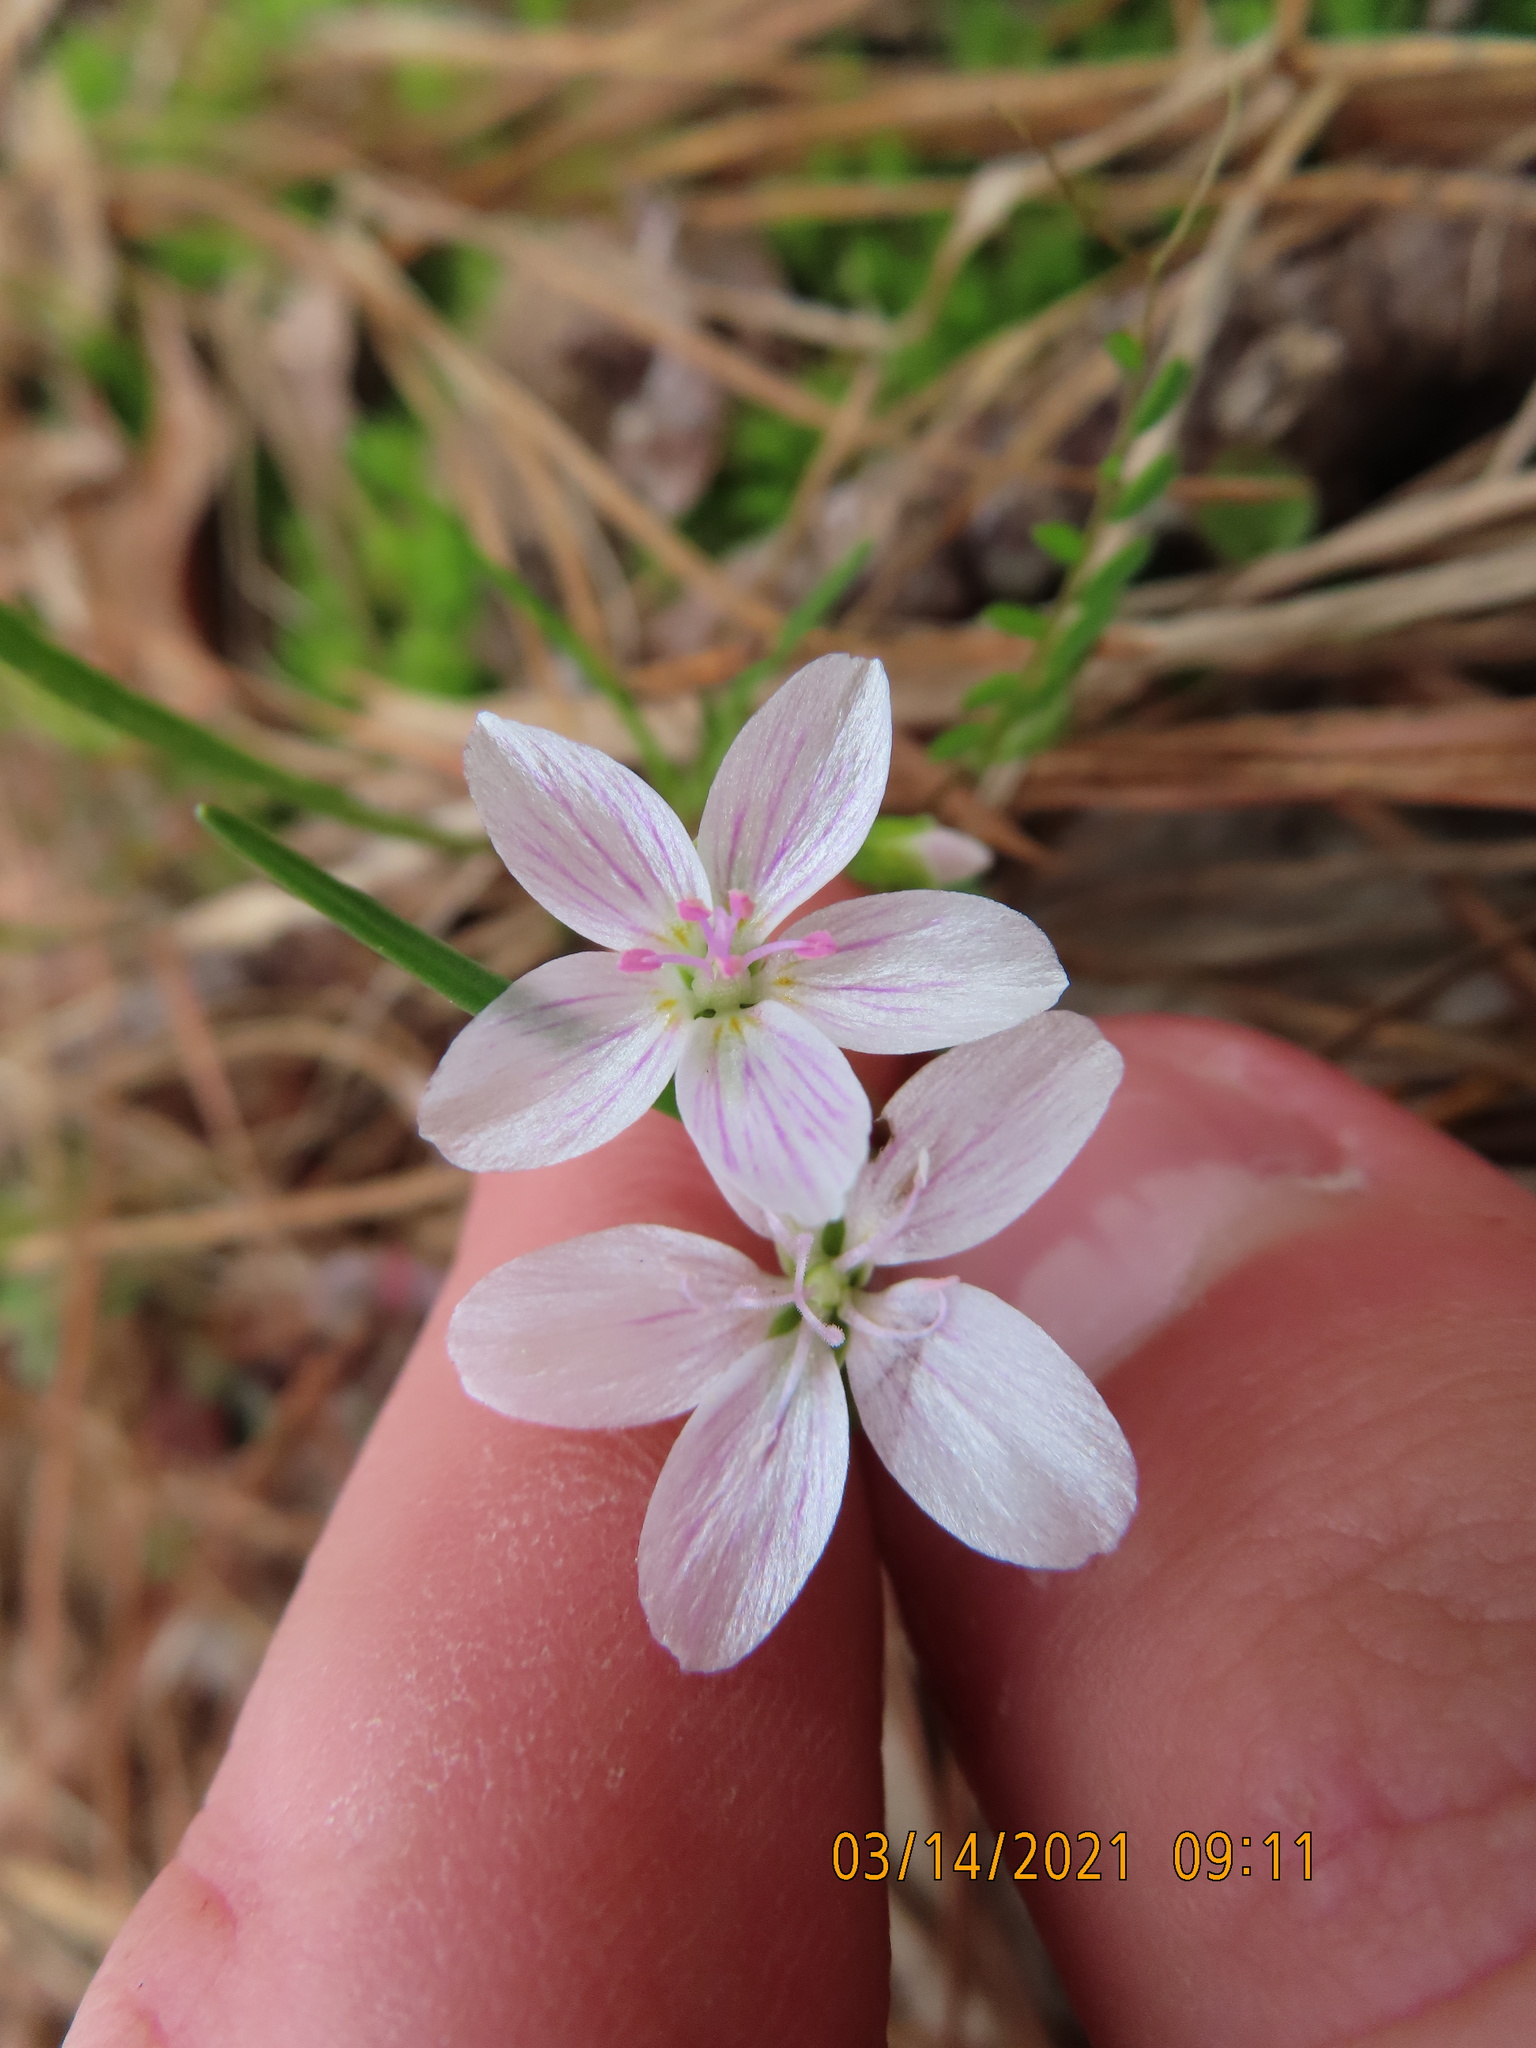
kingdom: Plantae
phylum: Tracheophyta
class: Magnoliopsida
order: Caryophyllales
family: Montiaceae
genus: Claytonia
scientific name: Claytonia virginica
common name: Virginia springbeauty
